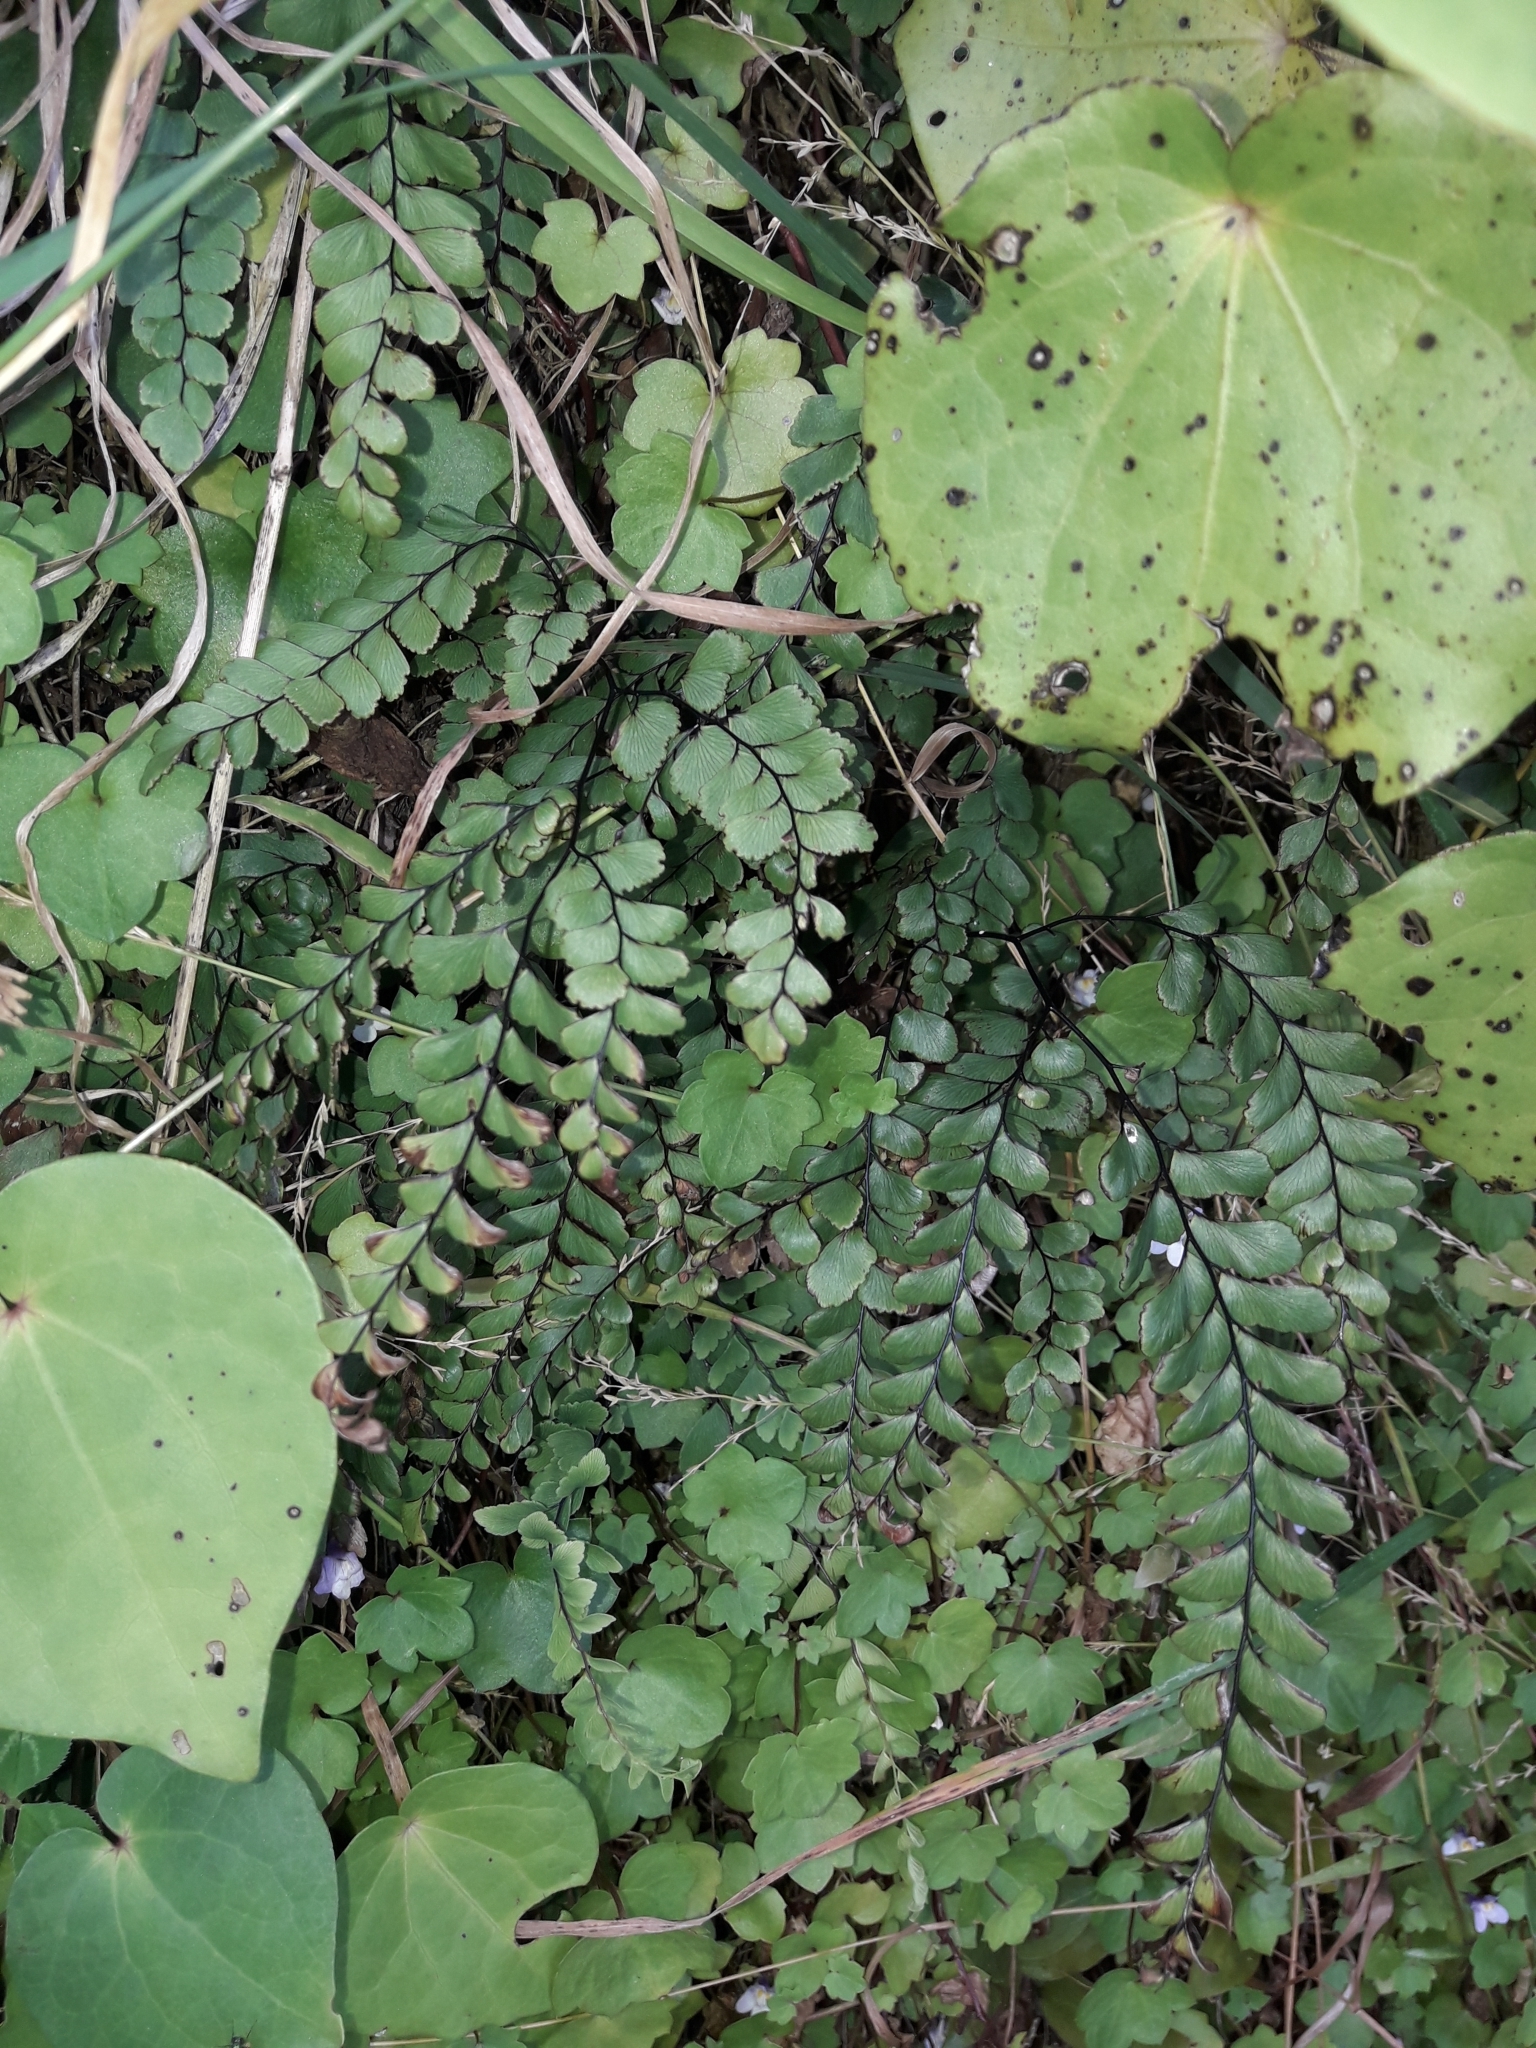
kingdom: Plantae
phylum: Tracheophyta
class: Polypodiopsida
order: Polypodiales
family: Pteridaceae
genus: Adiantum
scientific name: Adiantum cunninghamii
